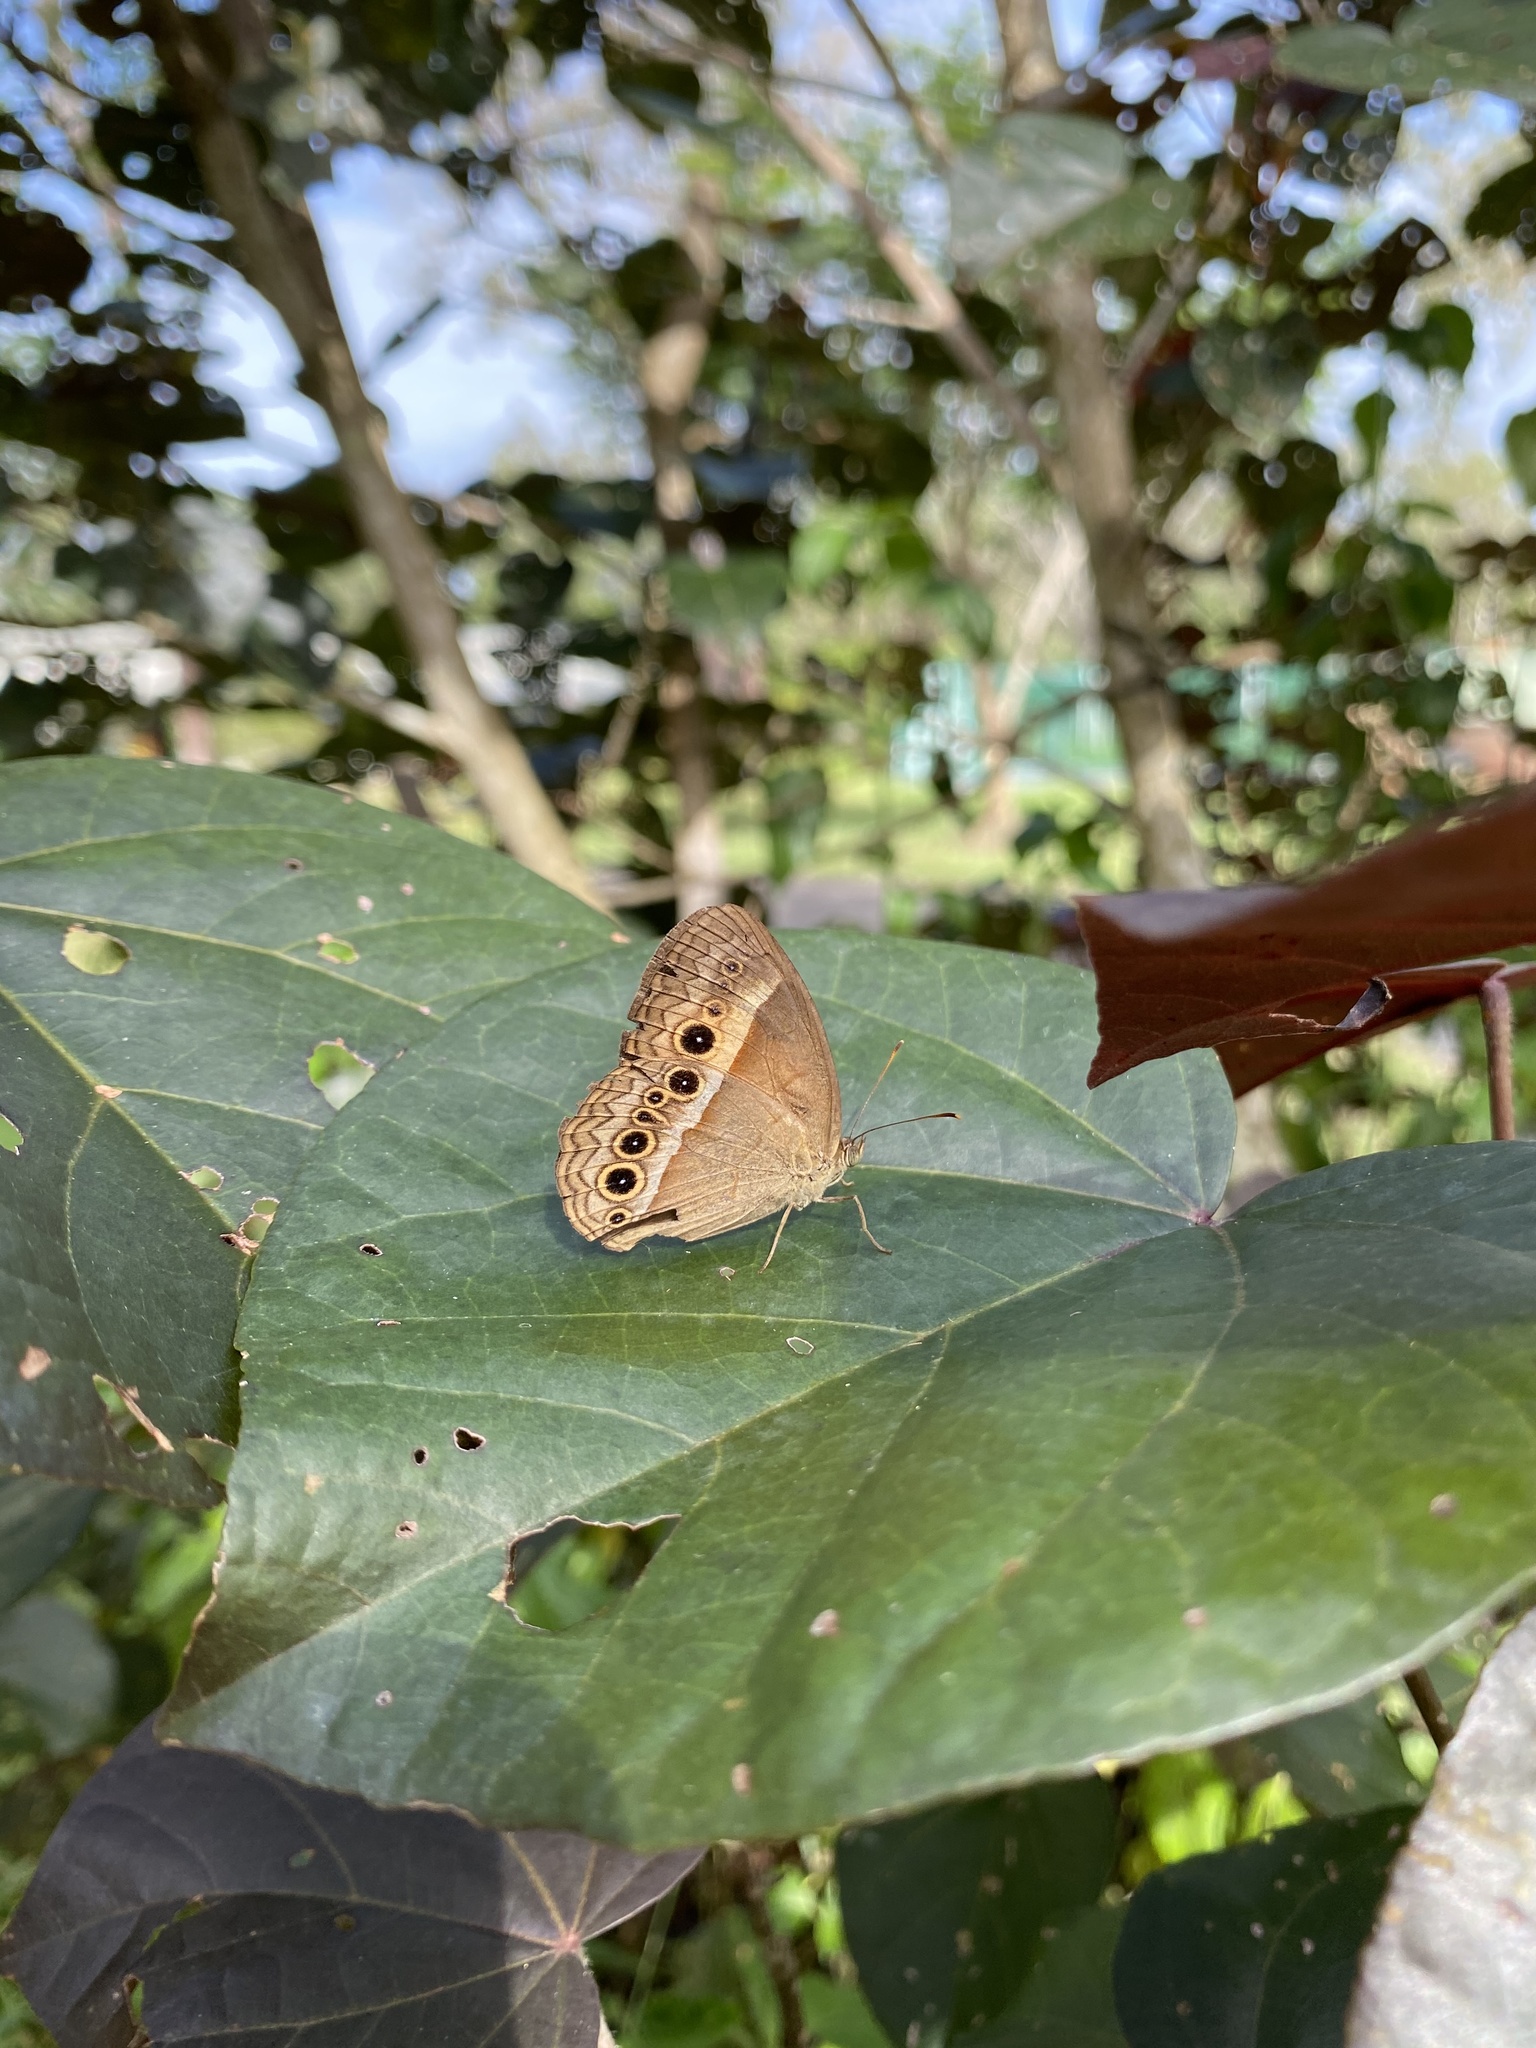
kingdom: Animalia
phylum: Arthropoda
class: Insecta
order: Lepidoptera
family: Nymphalidae
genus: Mycalesis
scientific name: Mycalesis terminus
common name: Orange bushbrown
